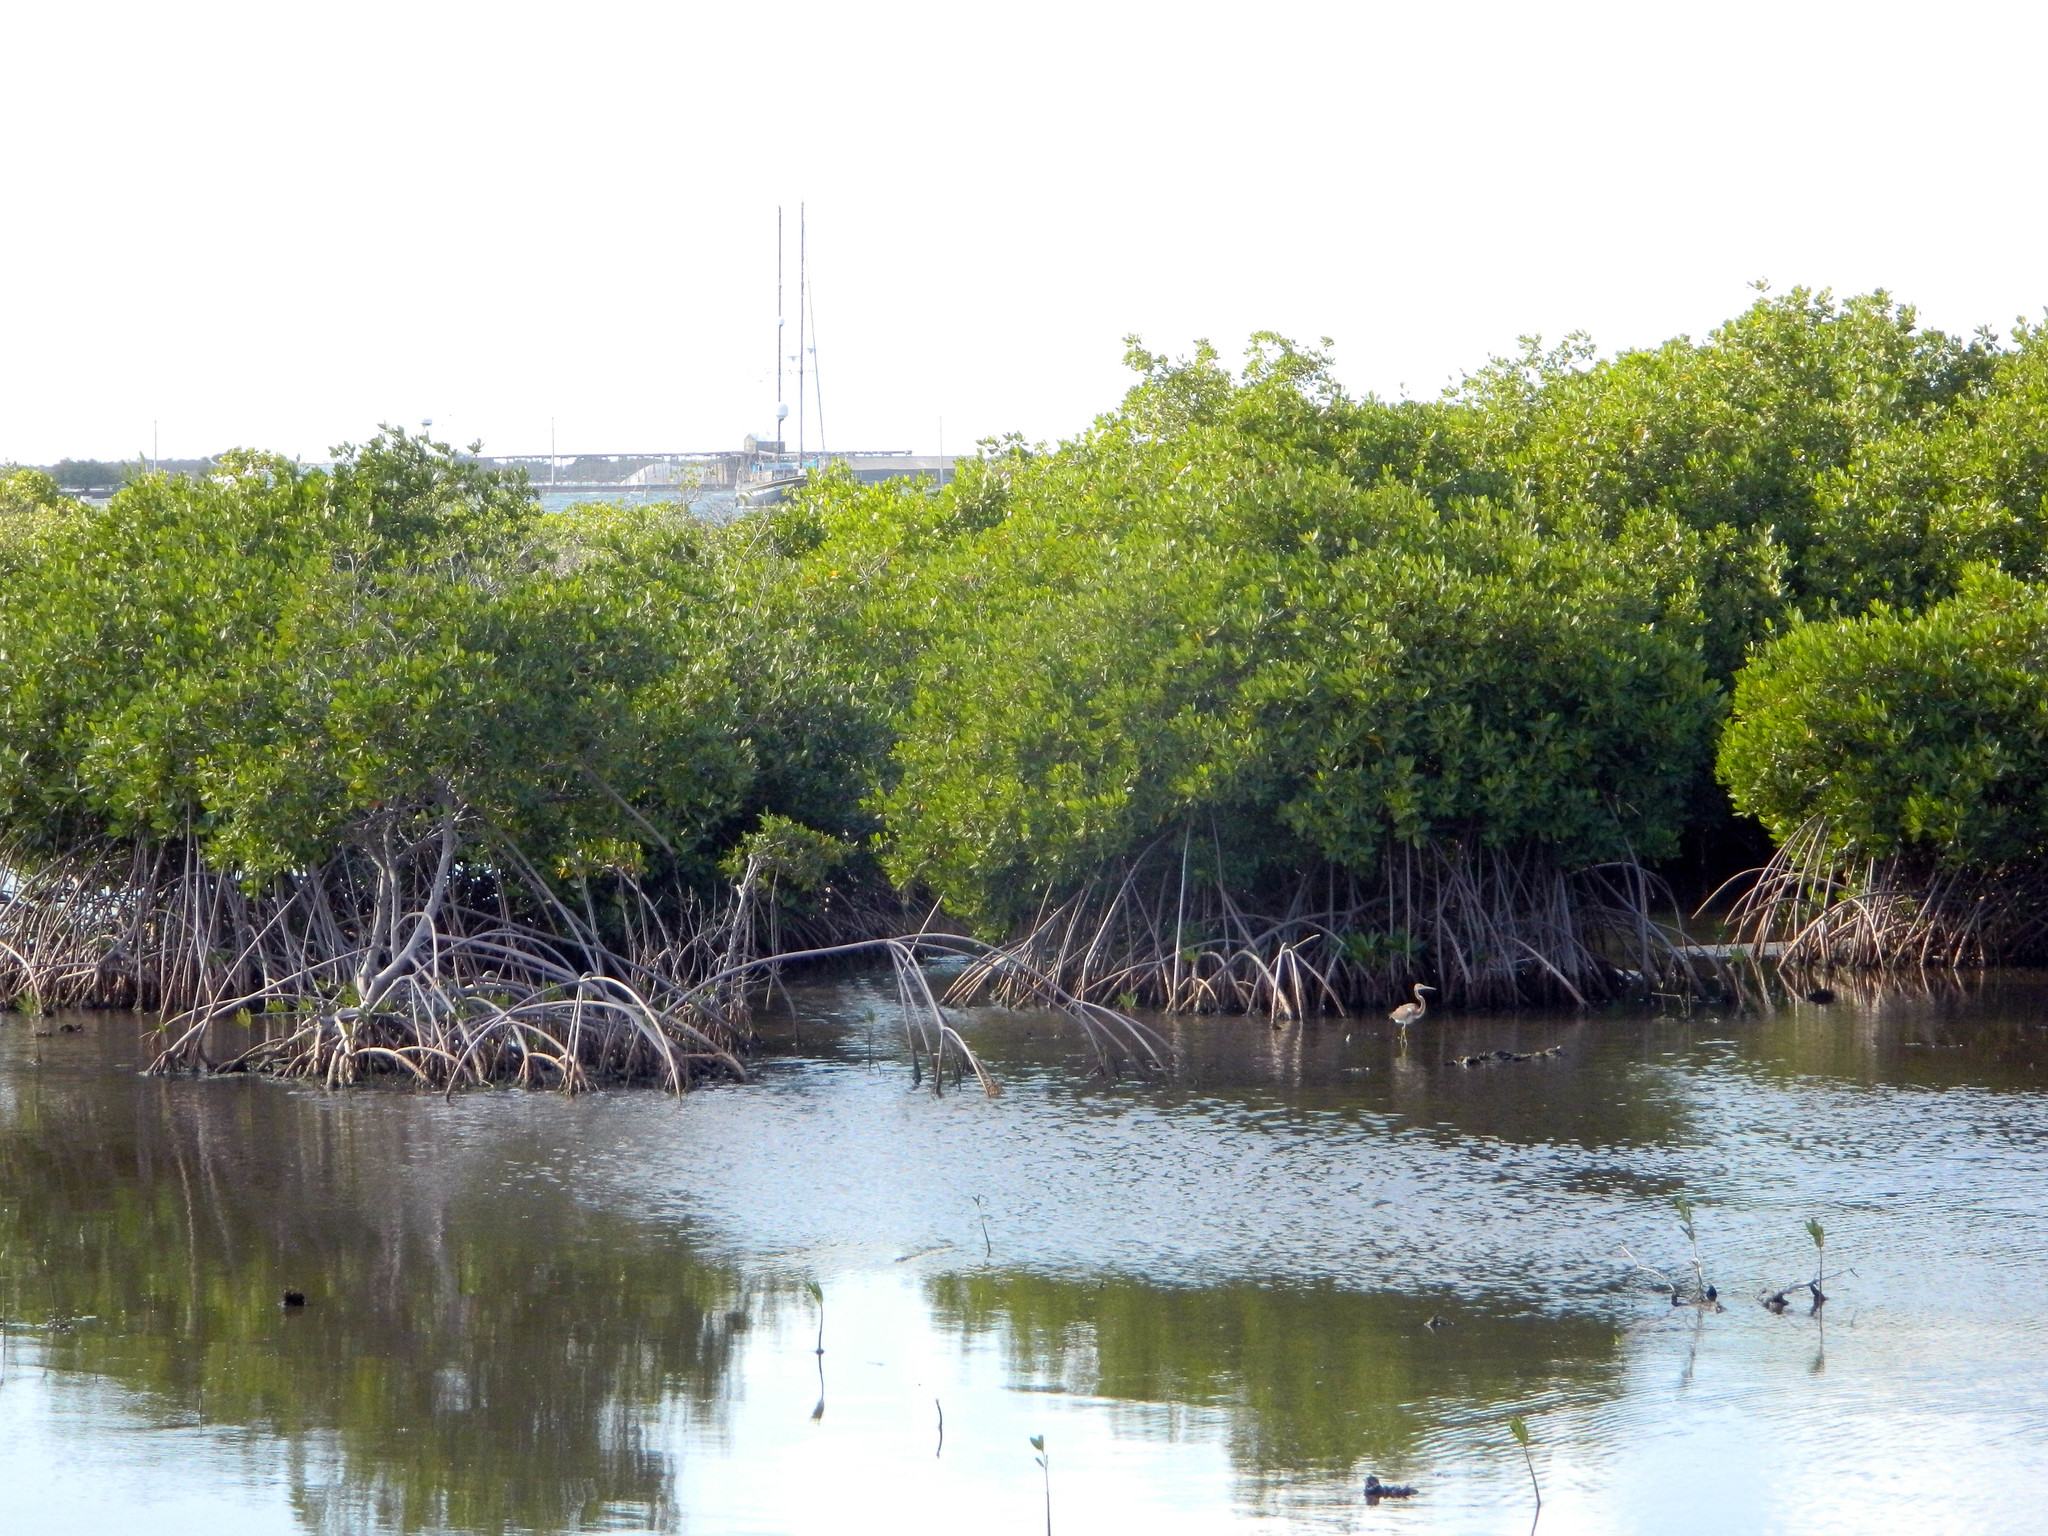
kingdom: Plantae
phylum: Tracheophyta
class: Magnoliopsida
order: Malpighiales
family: Rhizophoraceae
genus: Rhizophora
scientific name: Rhizophora mangle
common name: Red mangrove
